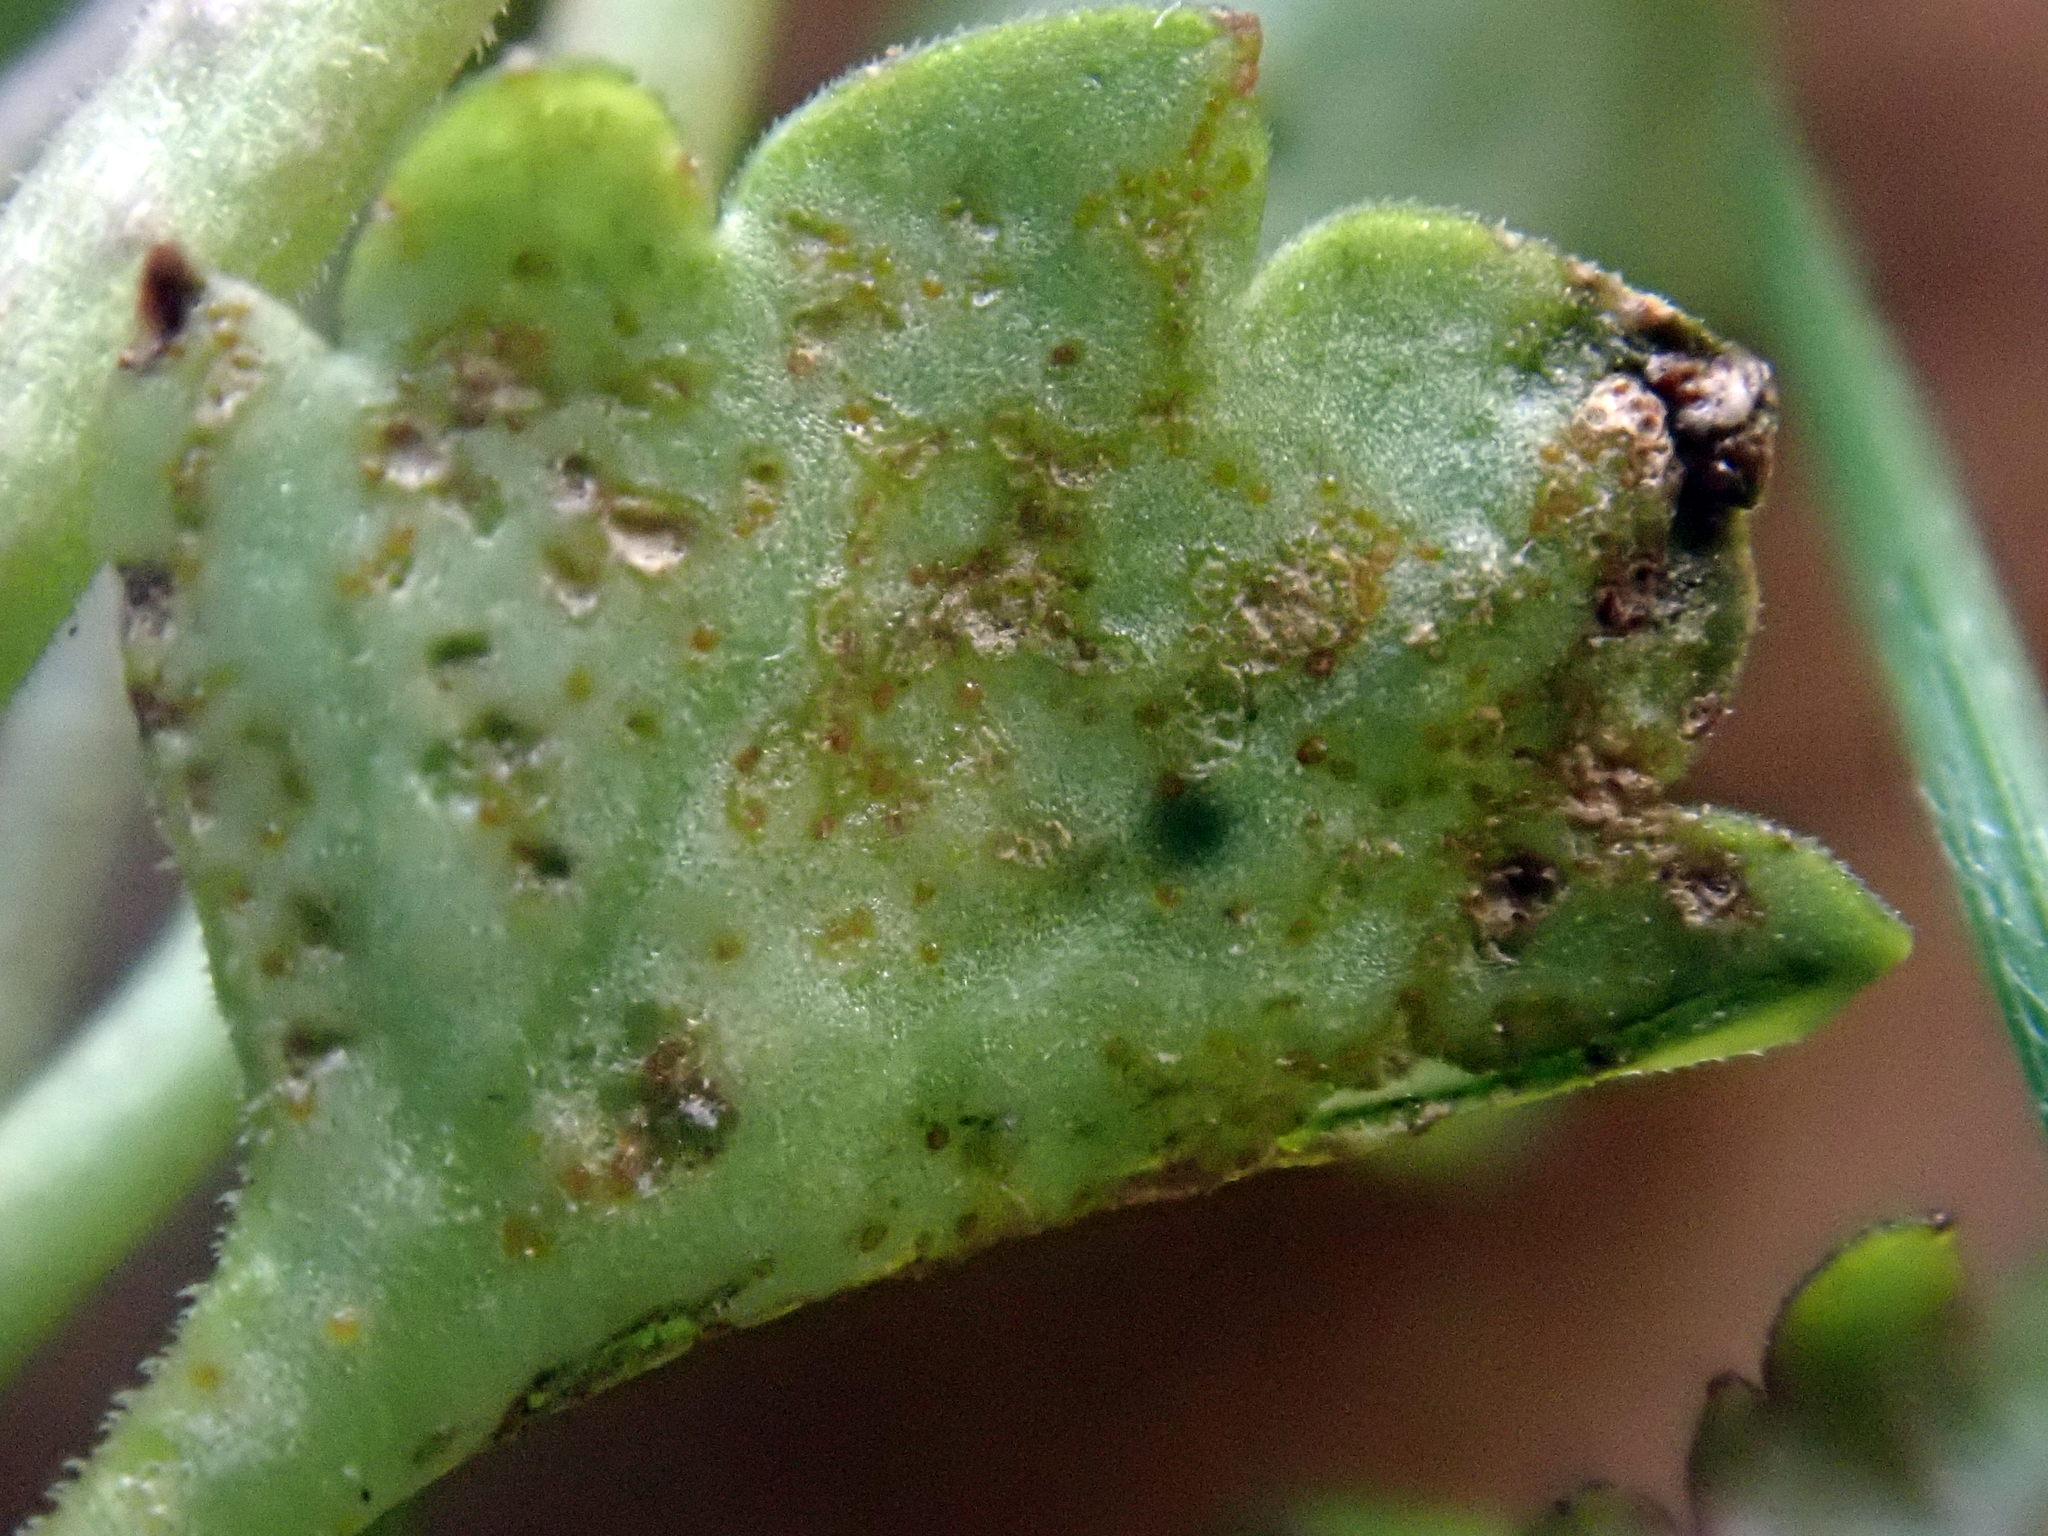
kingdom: Fungi
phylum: Basidiomycota
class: Pucciniomycetes
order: Pucciniales
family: Pucciniaceae
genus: Aecidium
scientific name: Aecidium disciforme
